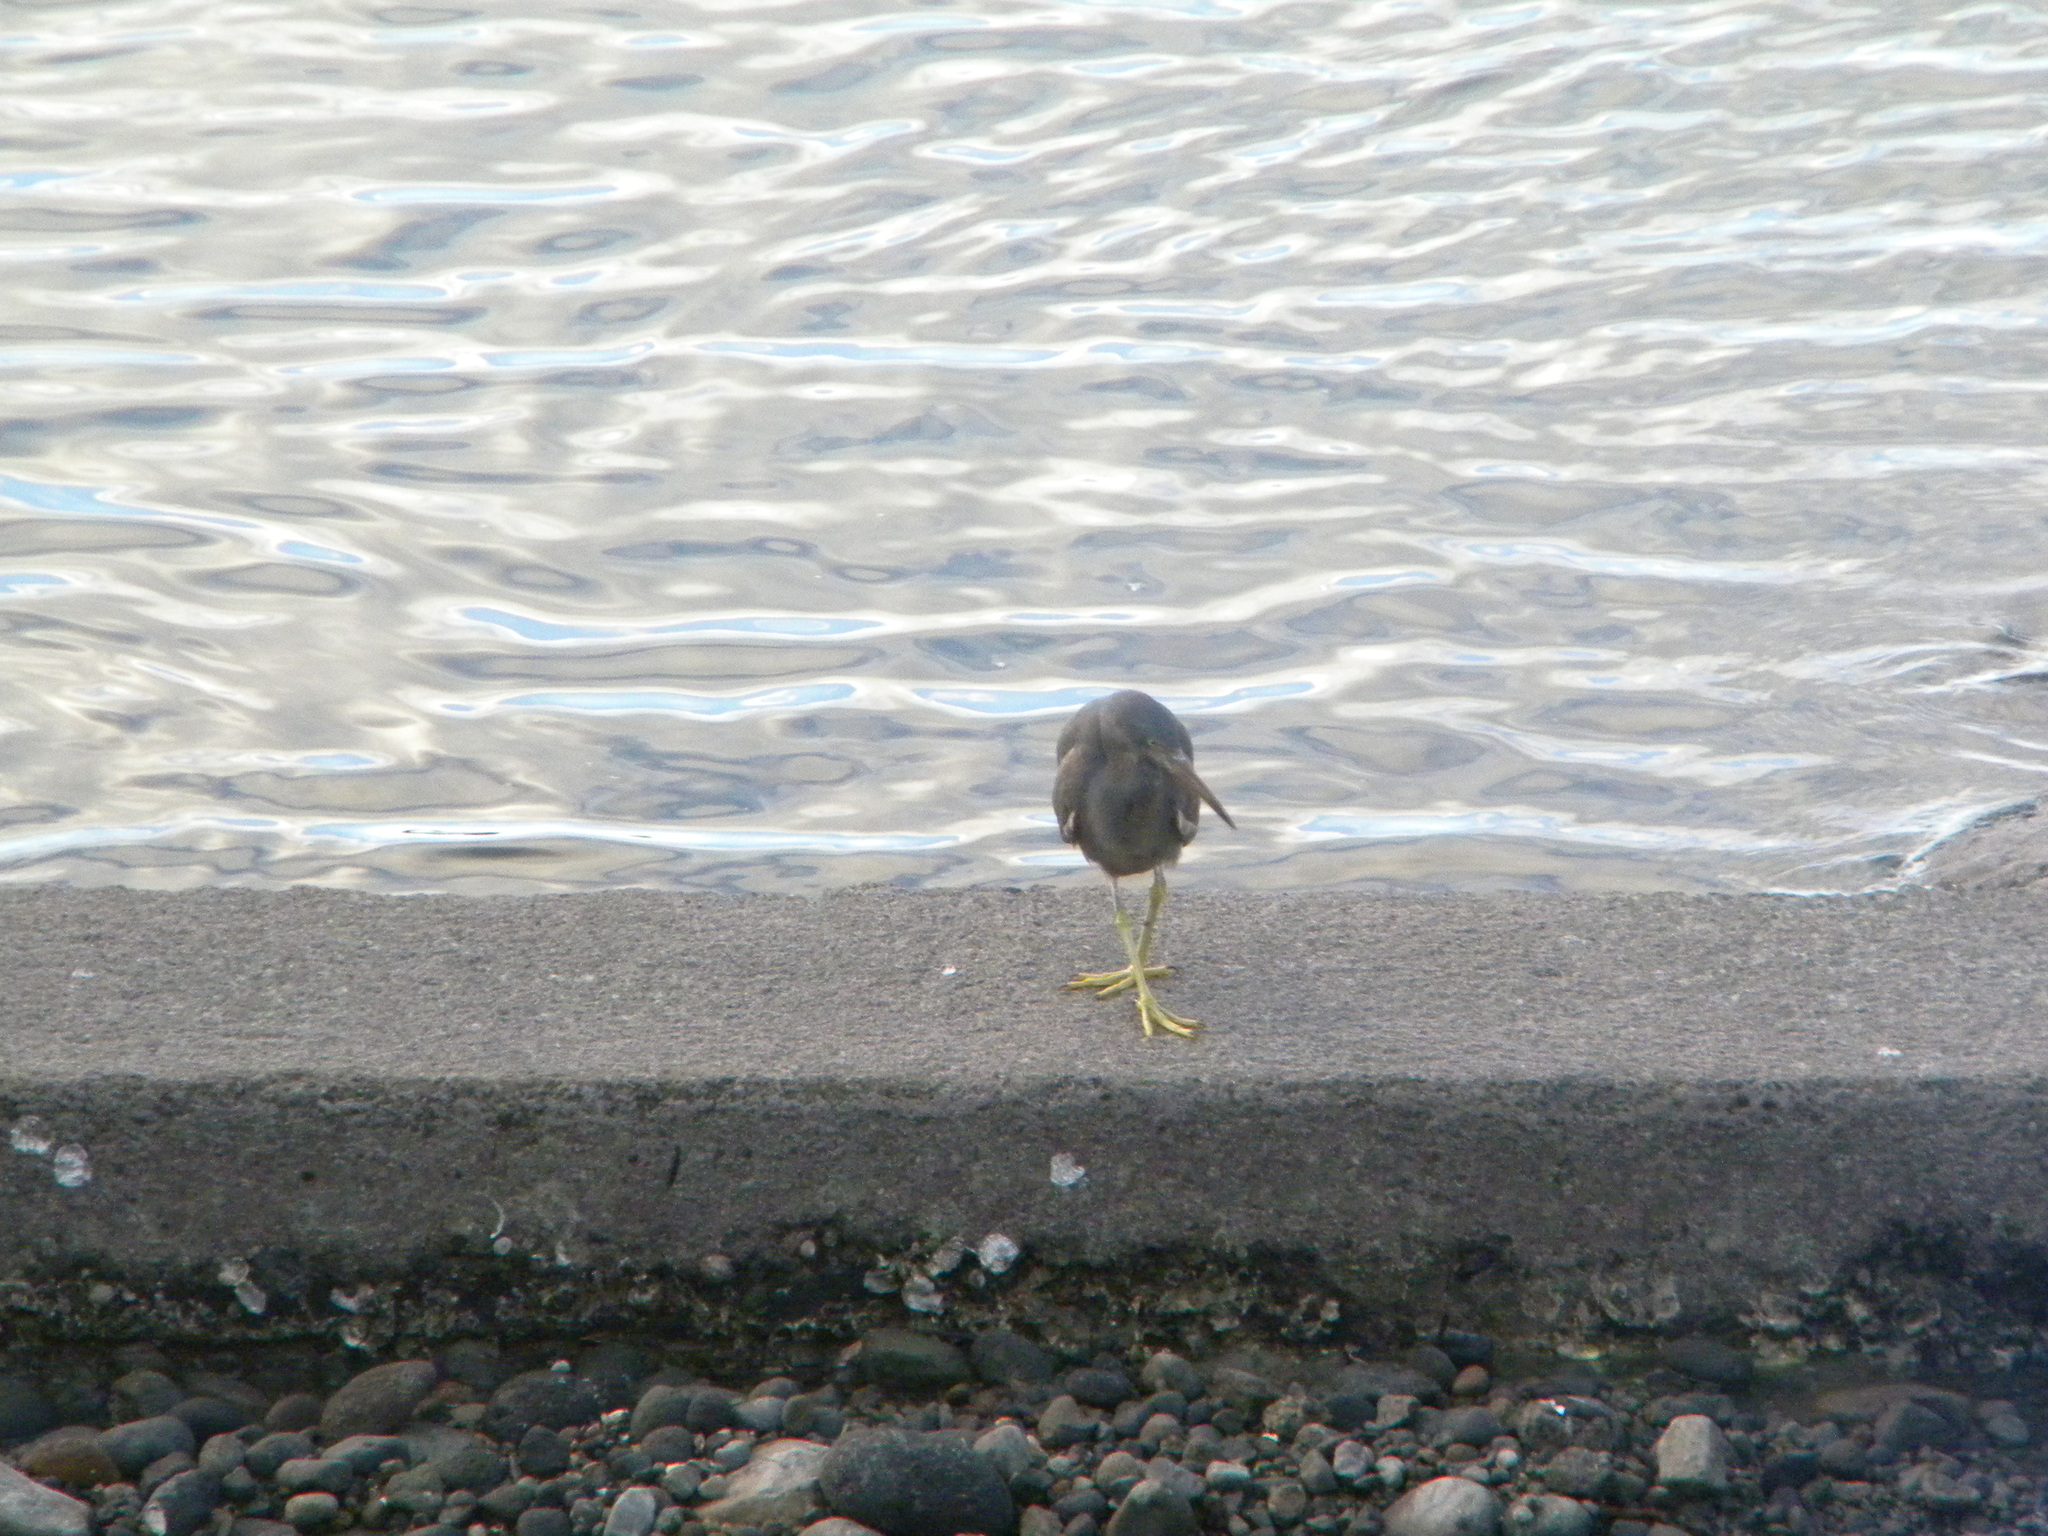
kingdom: Animalia
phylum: Chordata
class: Aves
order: Pelecaniformes
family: Ardeidae
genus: Egretta
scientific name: Egretta sacra
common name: Pacific reef heron
